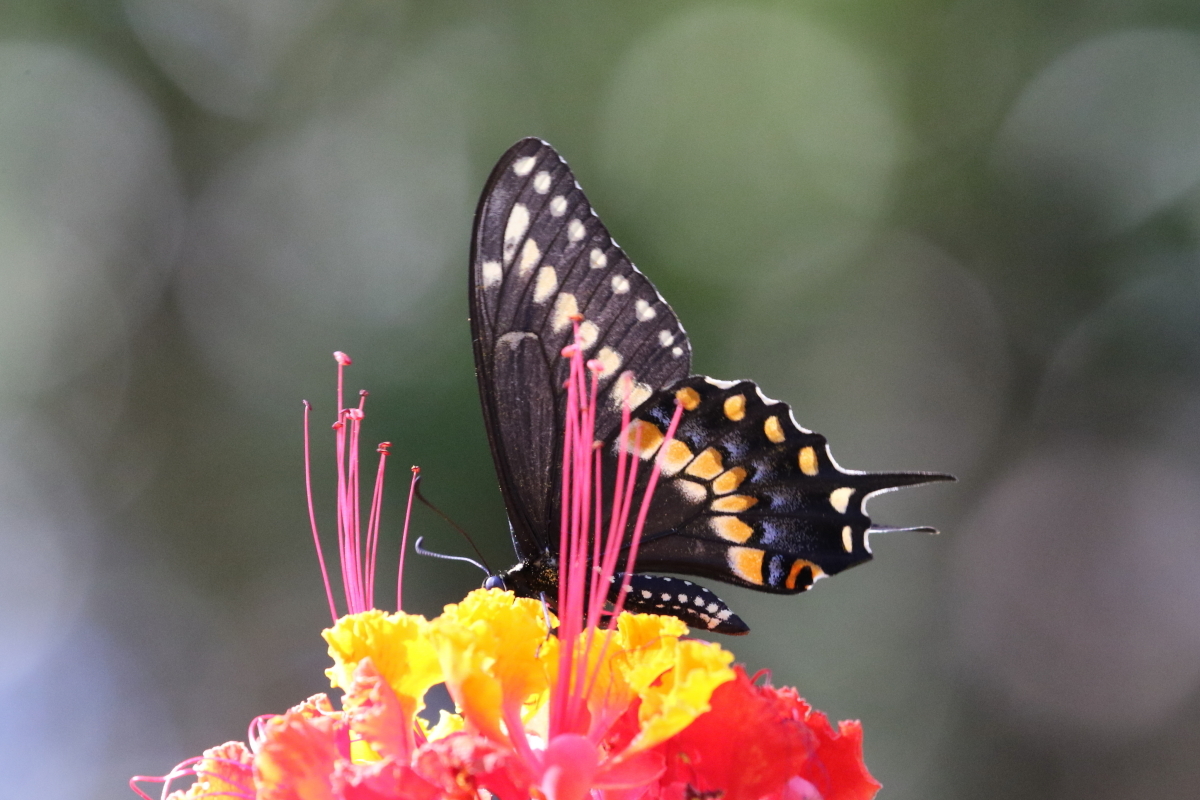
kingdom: Animalia
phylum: Arthropoda
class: Insecta
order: Lepidoptera
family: Papilionidae
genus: Papilio
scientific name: Papilio polyxenes
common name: Black swallowtail
